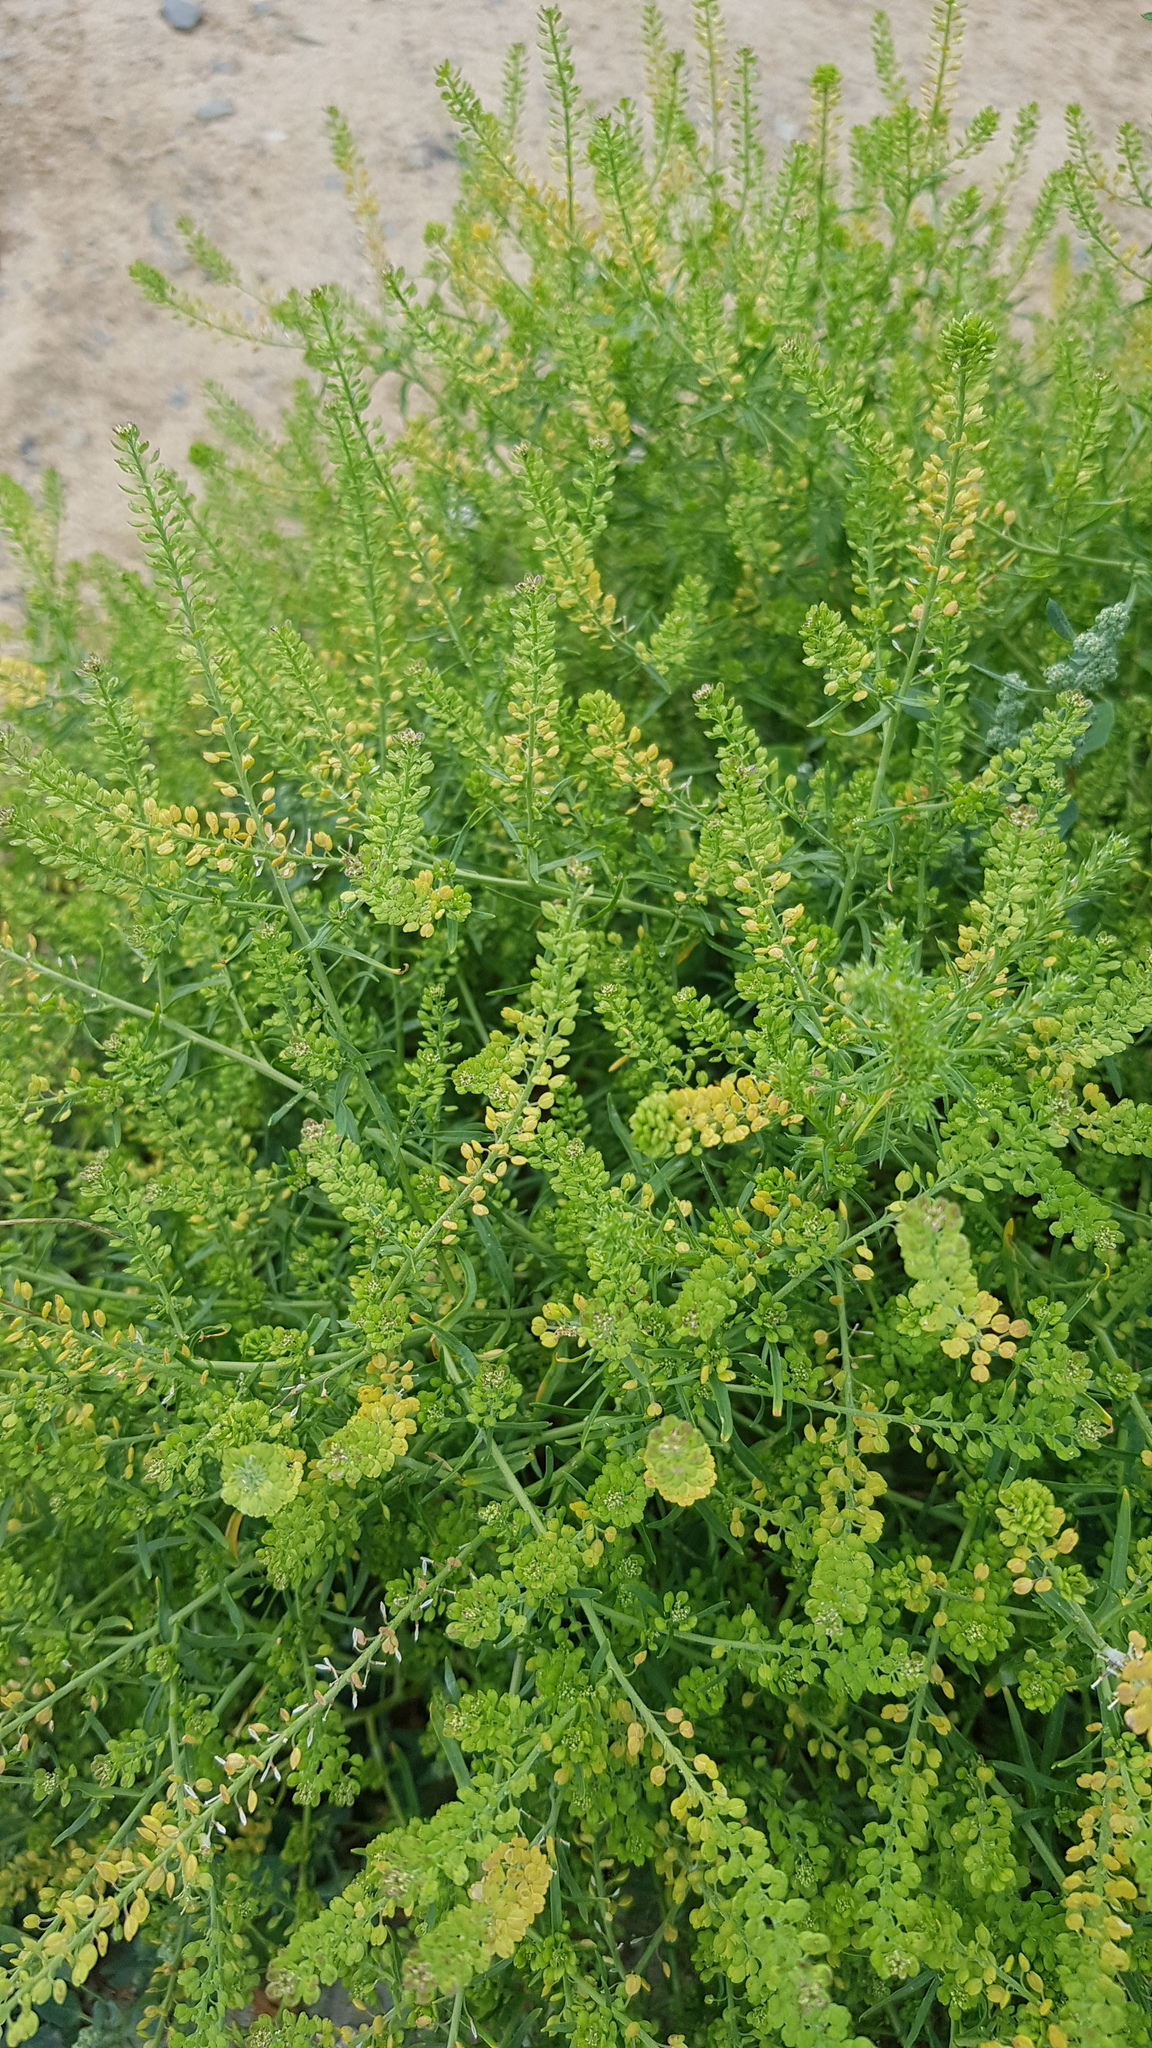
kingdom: Plantae
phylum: Tracheophyta
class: Magnoliopsida
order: Brassicales
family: Brassicaceae
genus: Lepidium
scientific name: Lepidium densiflorum
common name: Miner's pepperwort
